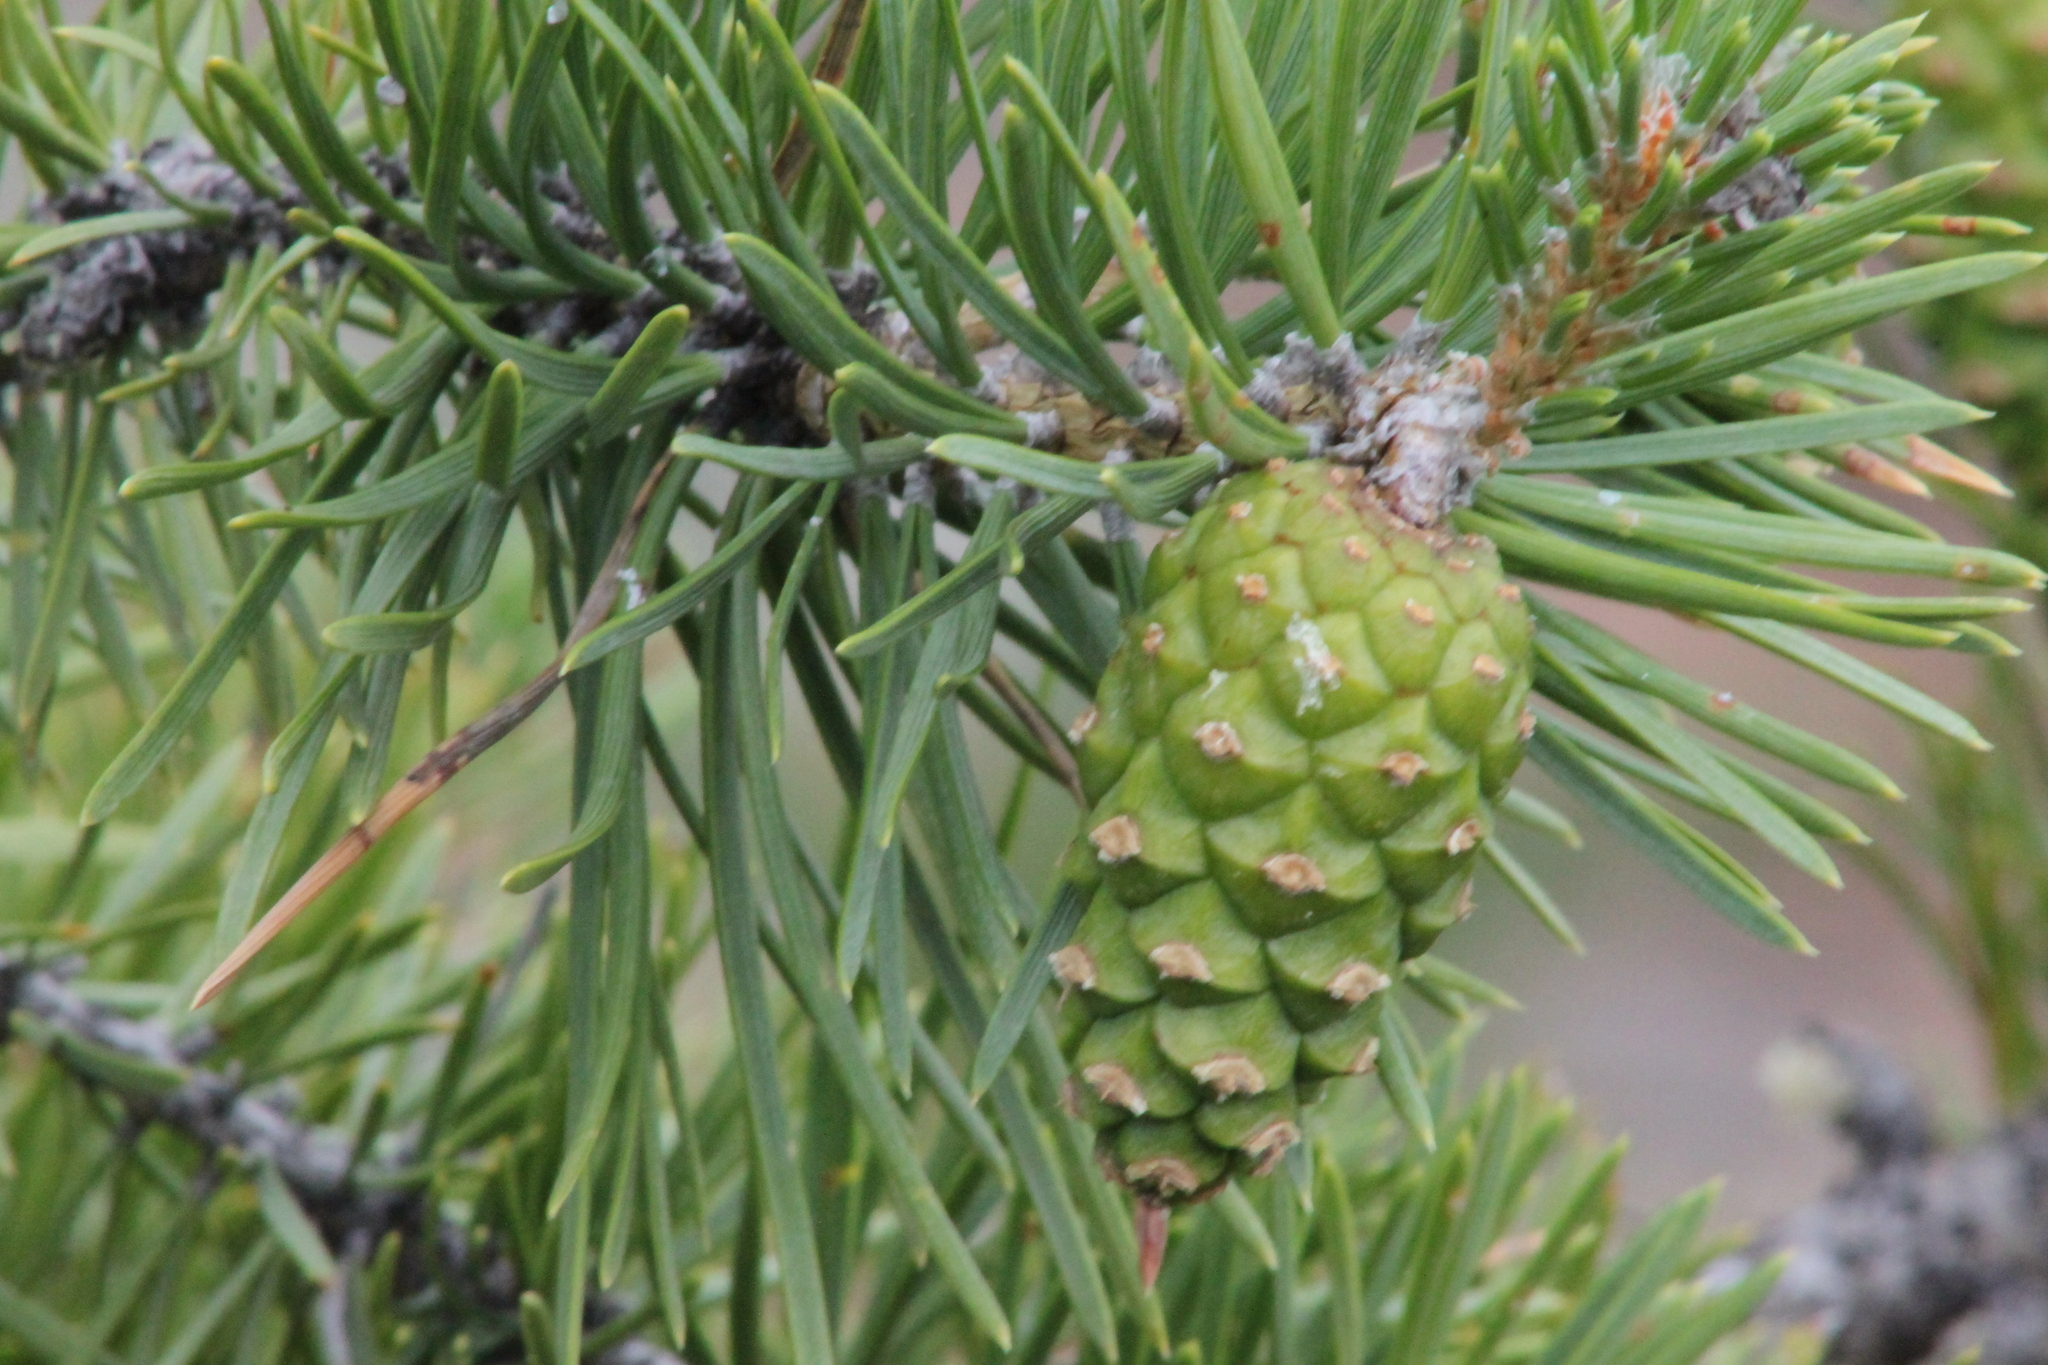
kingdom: Plantae
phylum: Tracheophyta
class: Pinopsida
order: Pinales
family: Pinaceae
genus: Pinus
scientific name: Pinus sylvestris
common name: Scots pine
